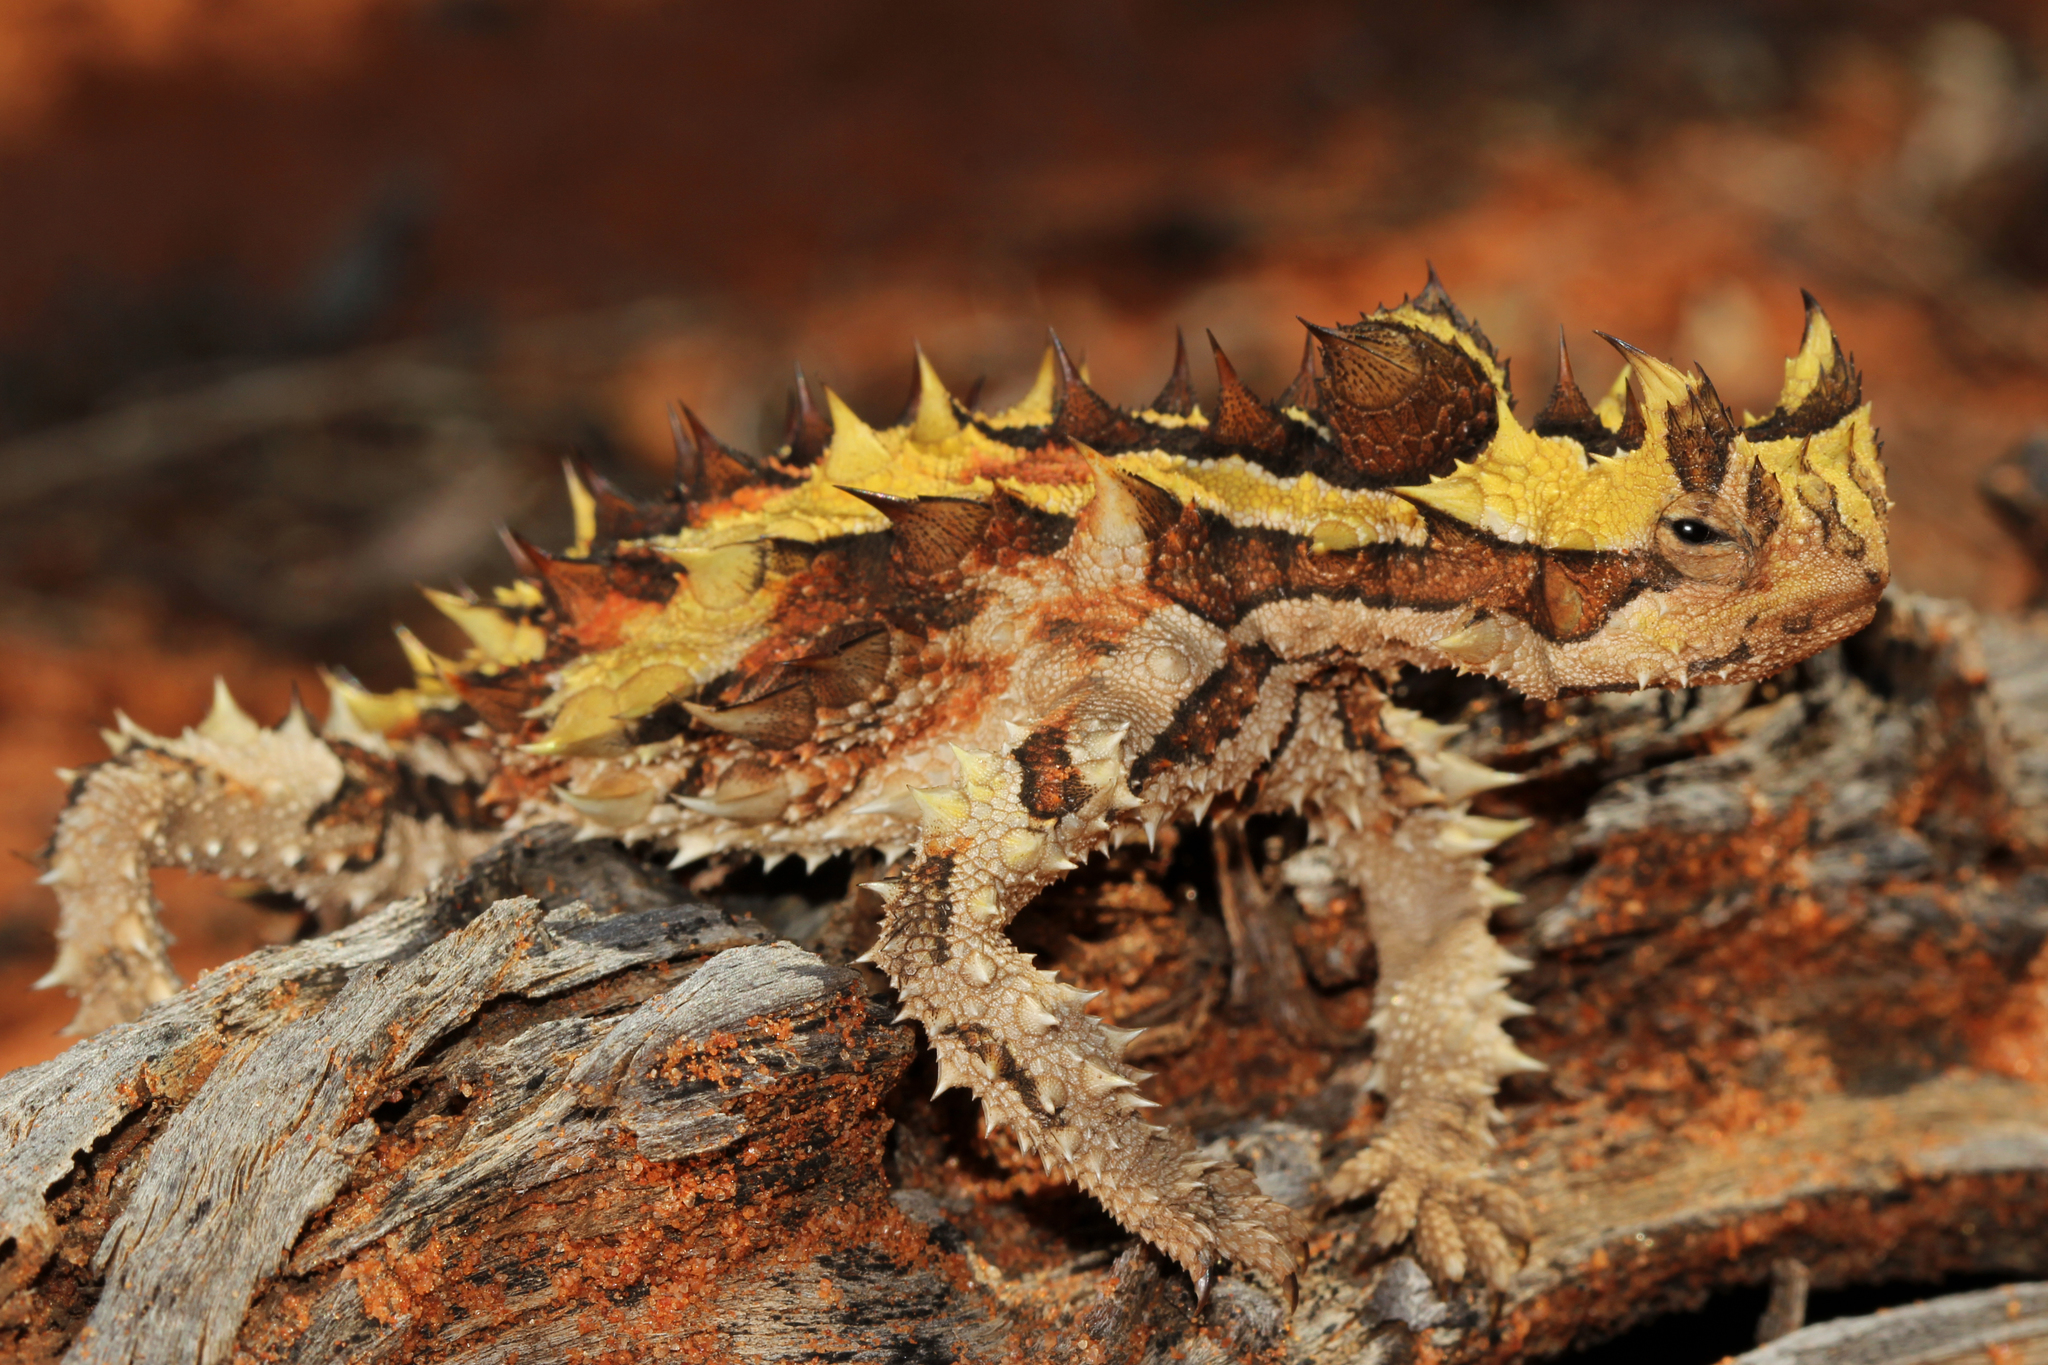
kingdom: Animalia
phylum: Chordata
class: Squamata
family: Agamidae
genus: Moloch
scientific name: Moloch horridus
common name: Mountain devil
